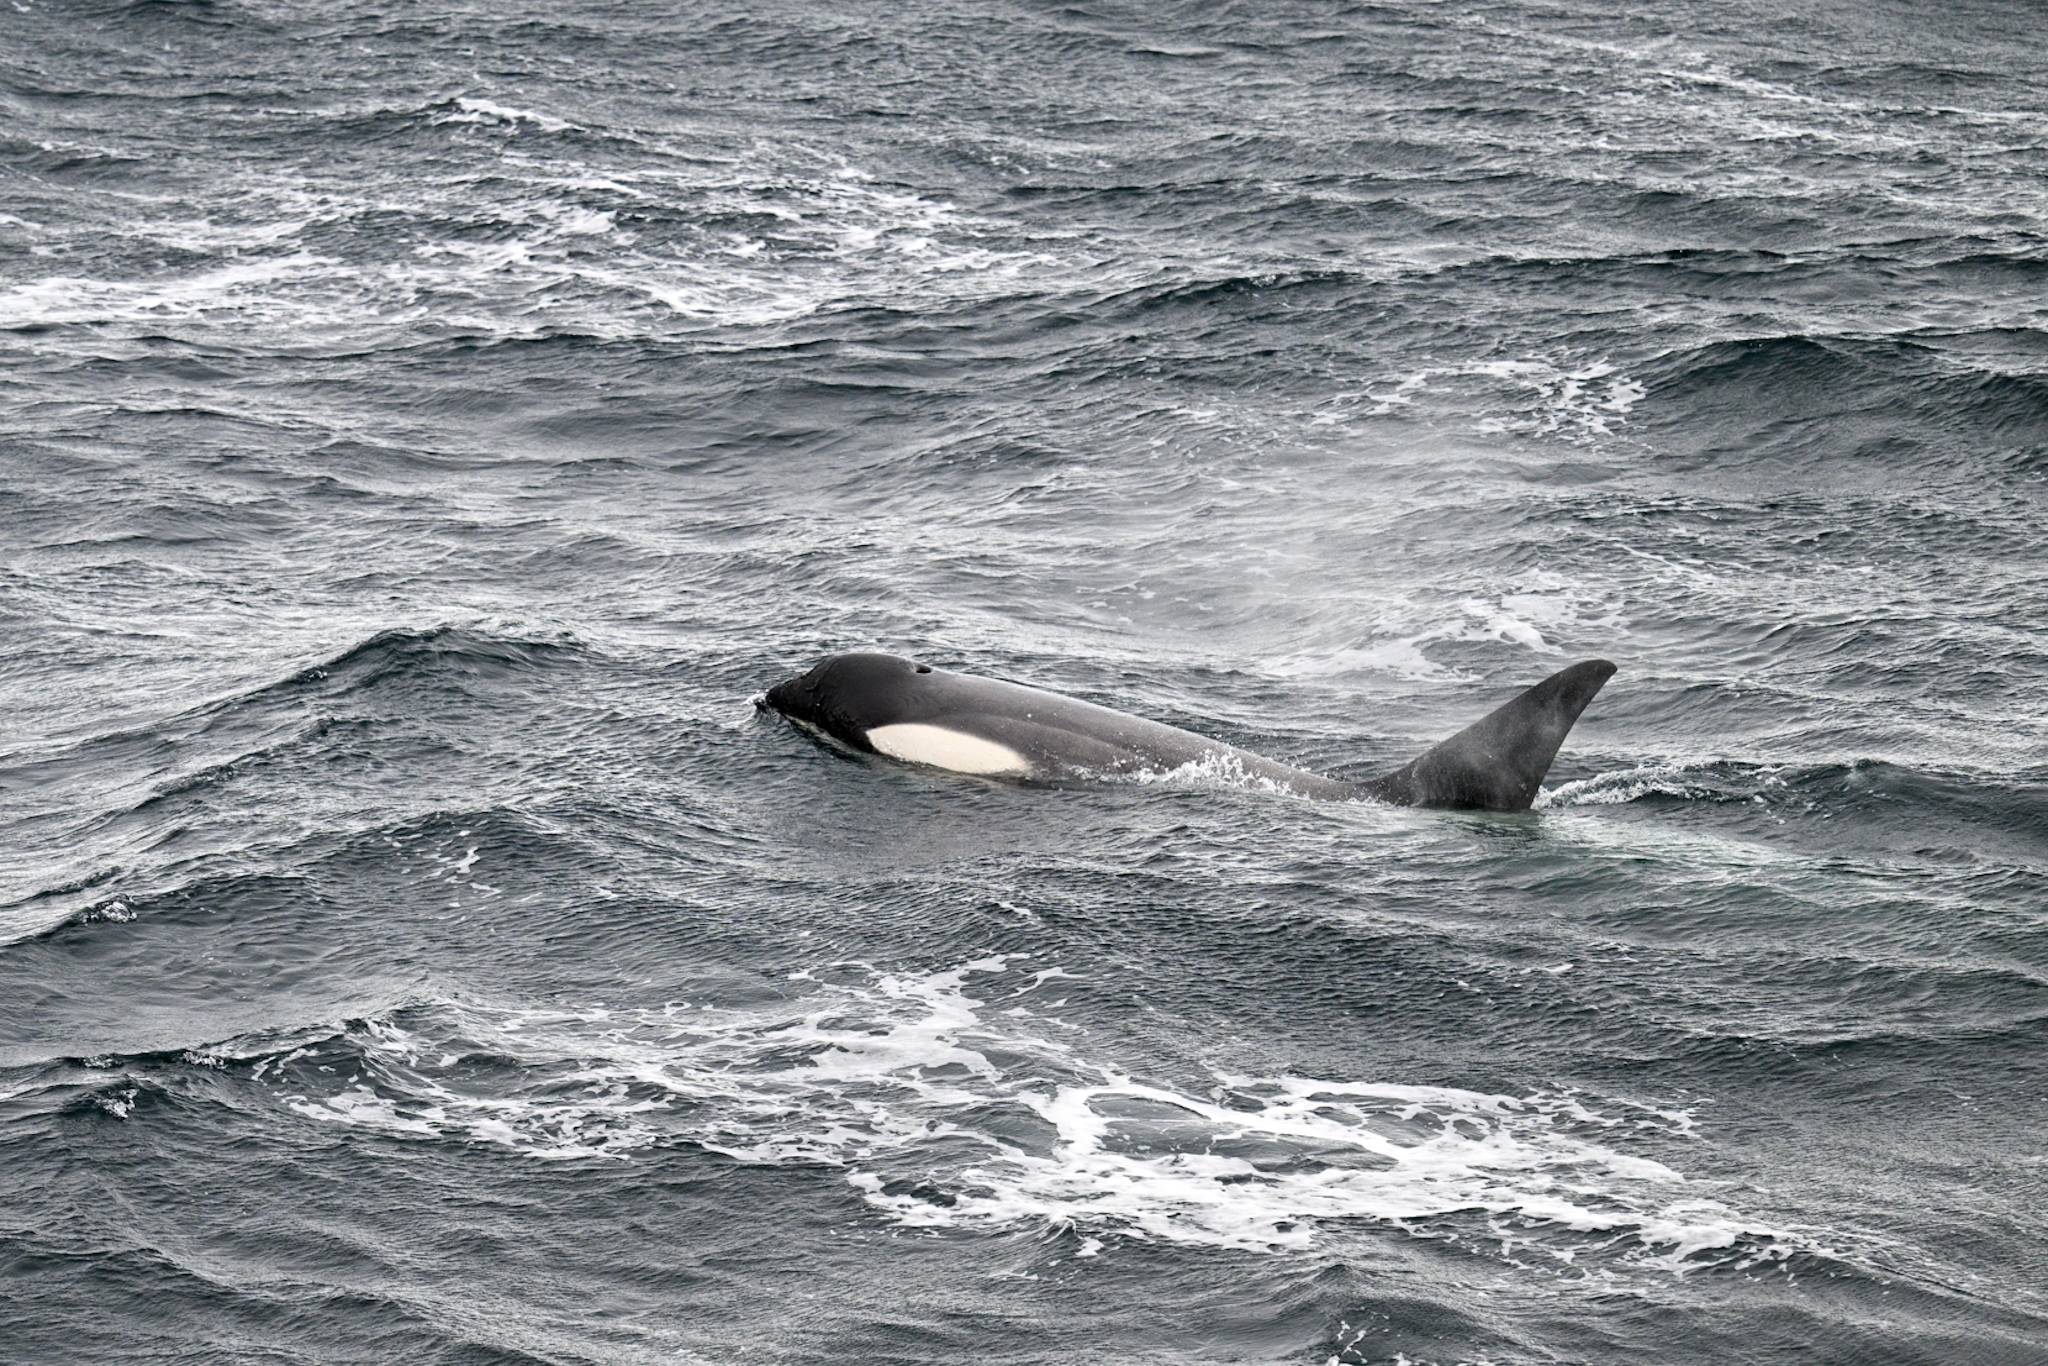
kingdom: Animalia
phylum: Chordata
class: Mammalia
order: Cetacea
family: Delphinidae
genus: Orcinus
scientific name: Orcinus orca
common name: Killer whale
